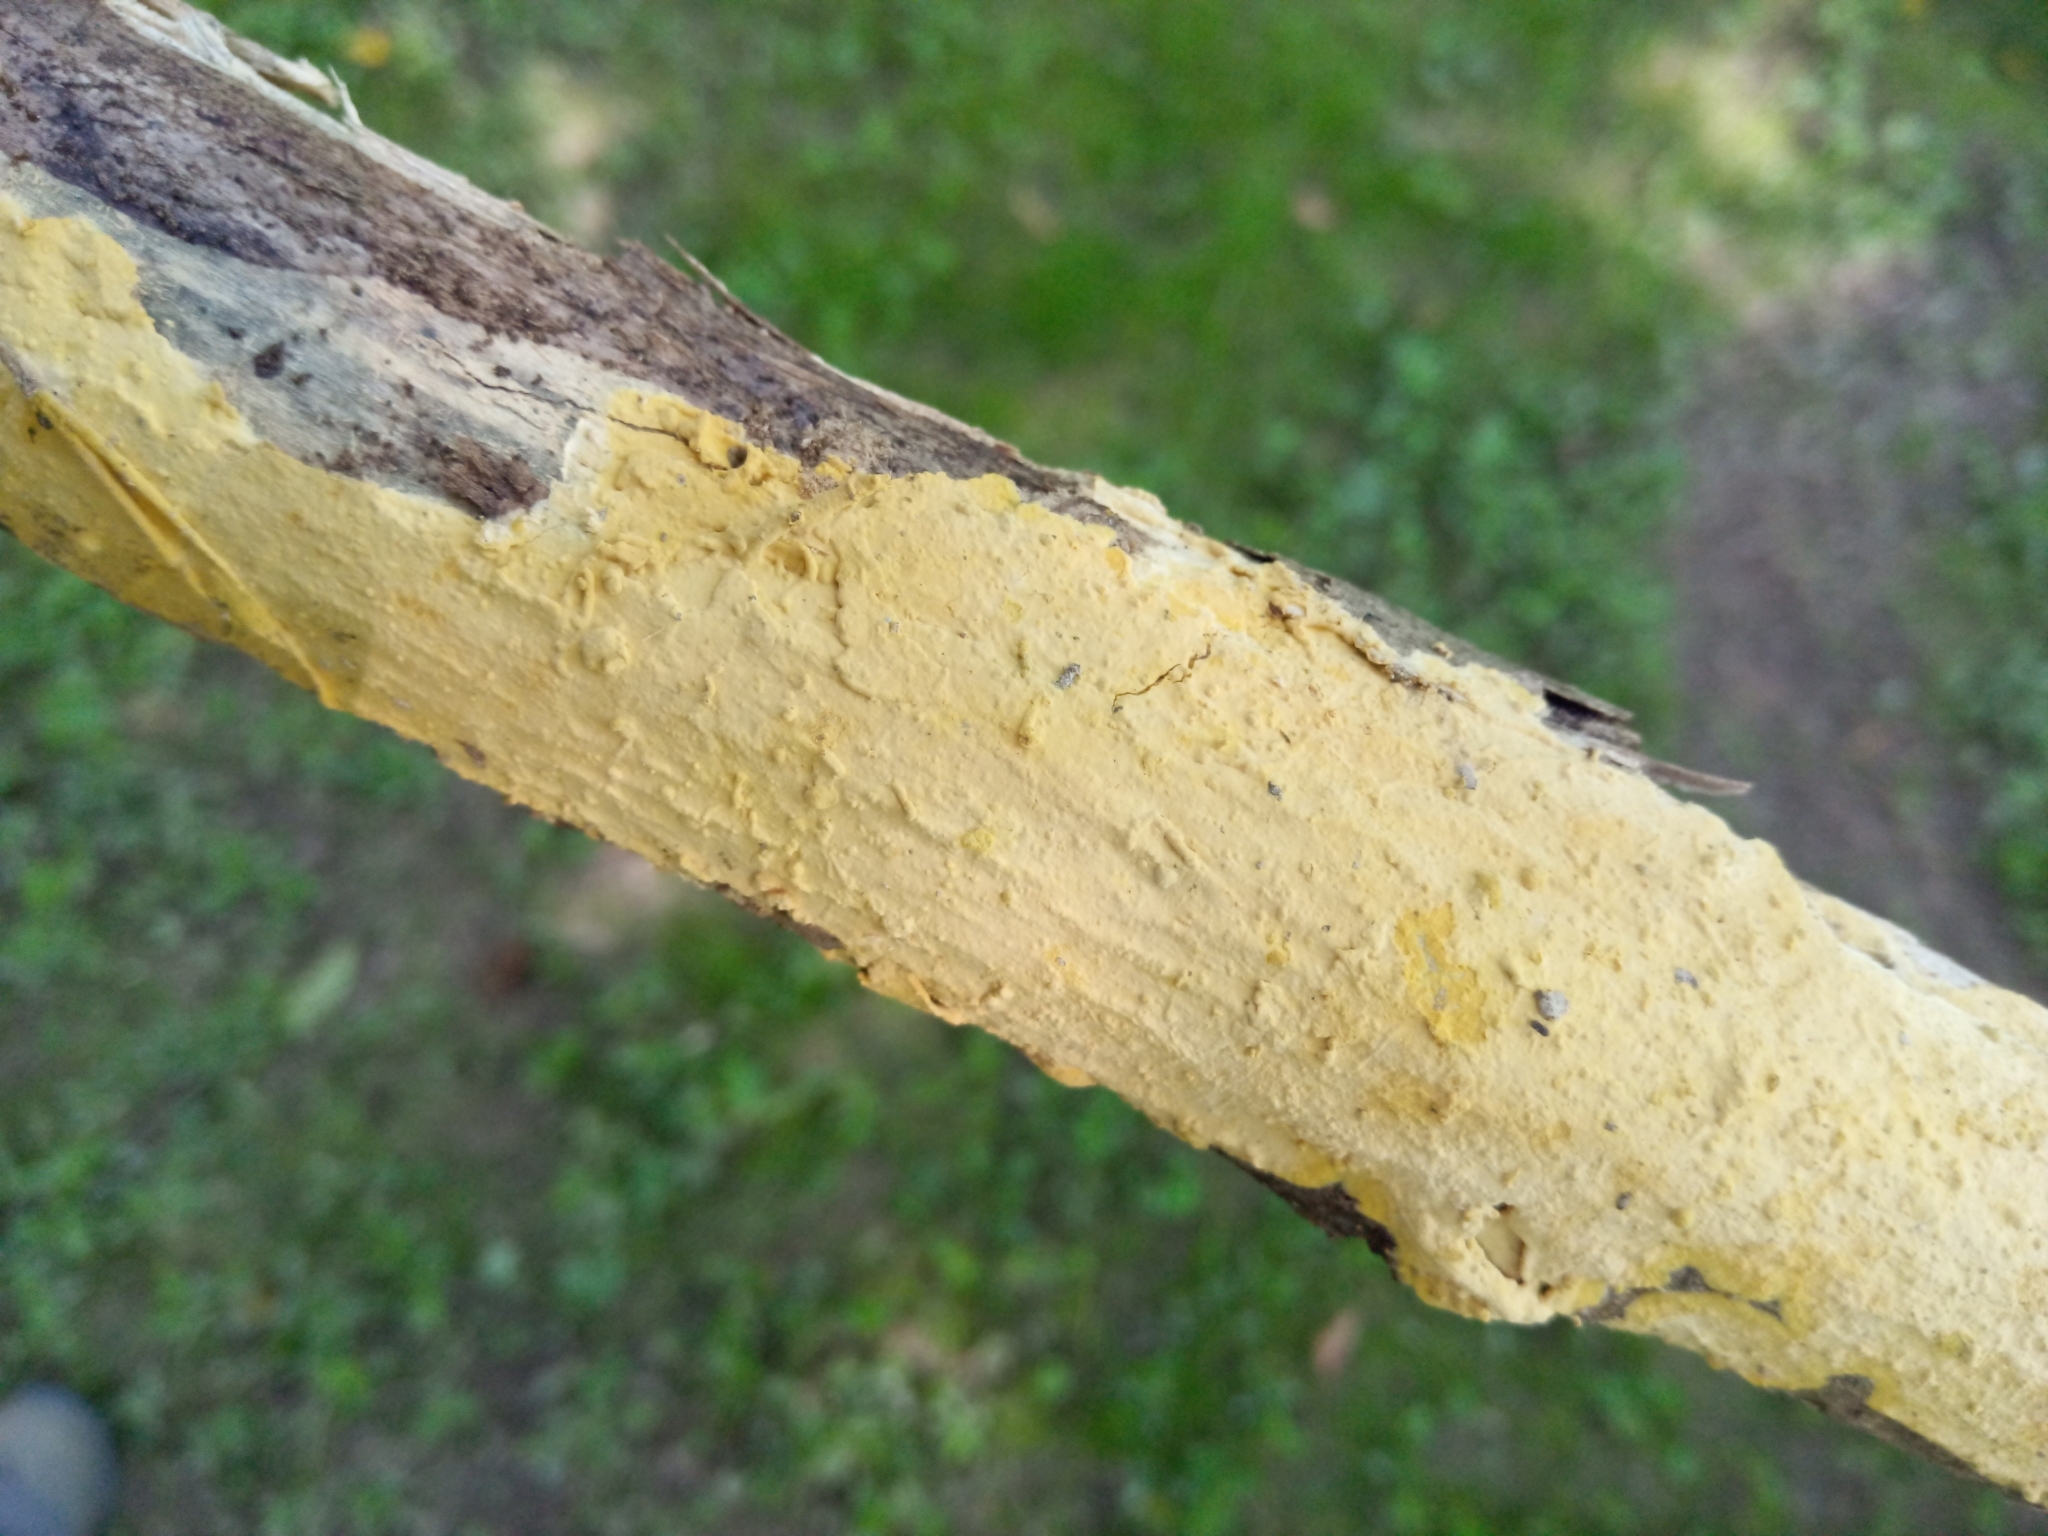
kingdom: Fungi
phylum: Basidiomycota
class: Agaricomycetes
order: Russulales
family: Peniophoraceae
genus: Vararia
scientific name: Vararia investiens
